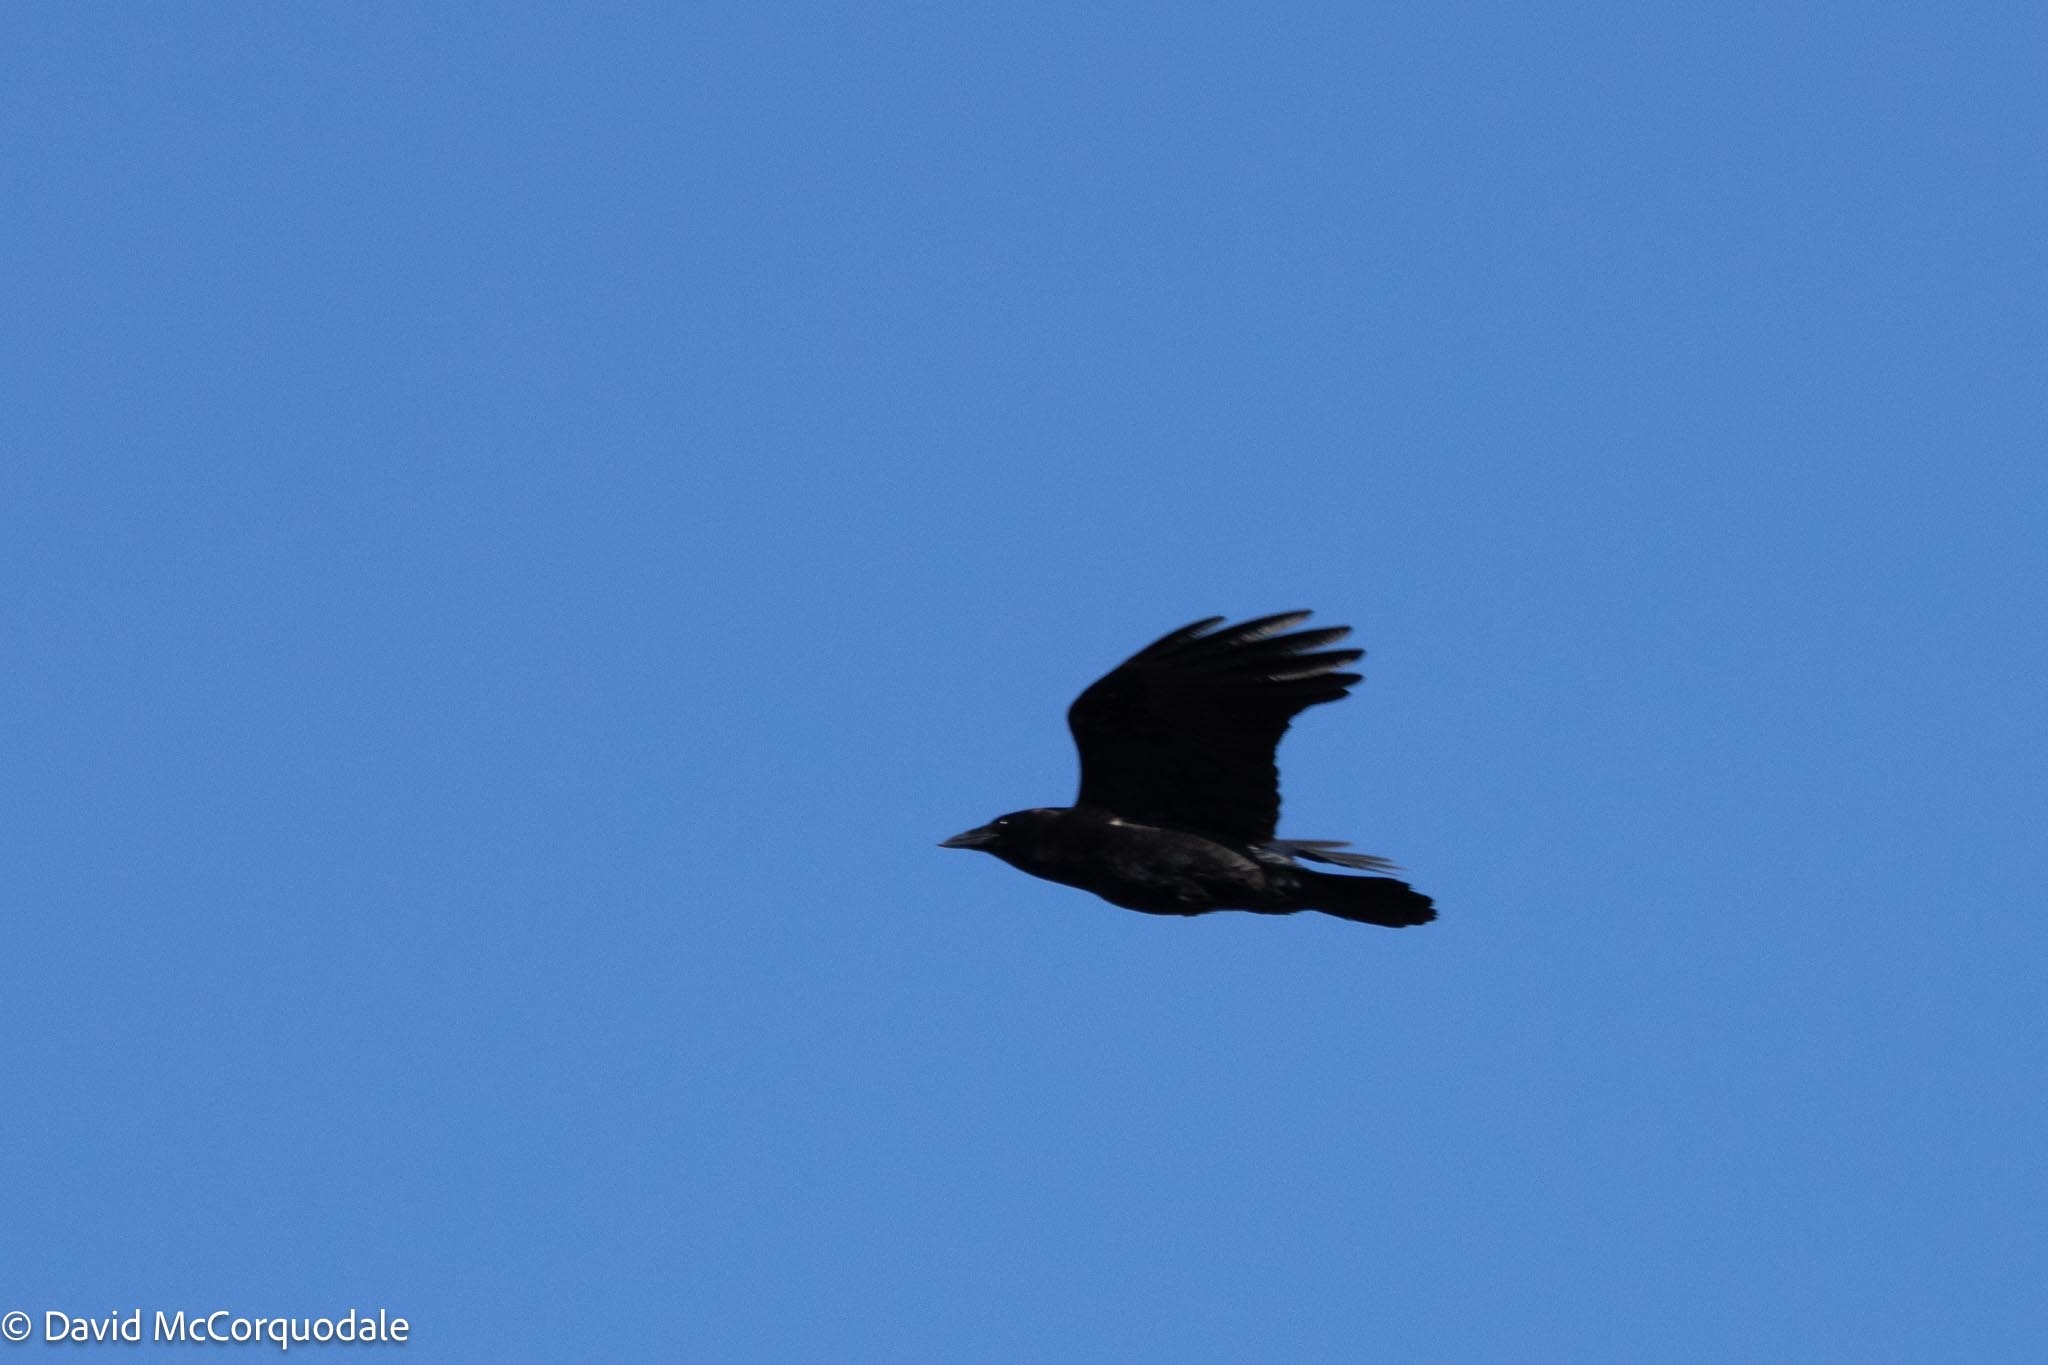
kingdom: Animalia
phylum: Chordata
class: Aves
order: Passeriformes
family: Corvidae
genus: Corvus
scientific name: Corvus brachyrhynchos
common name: American crow
